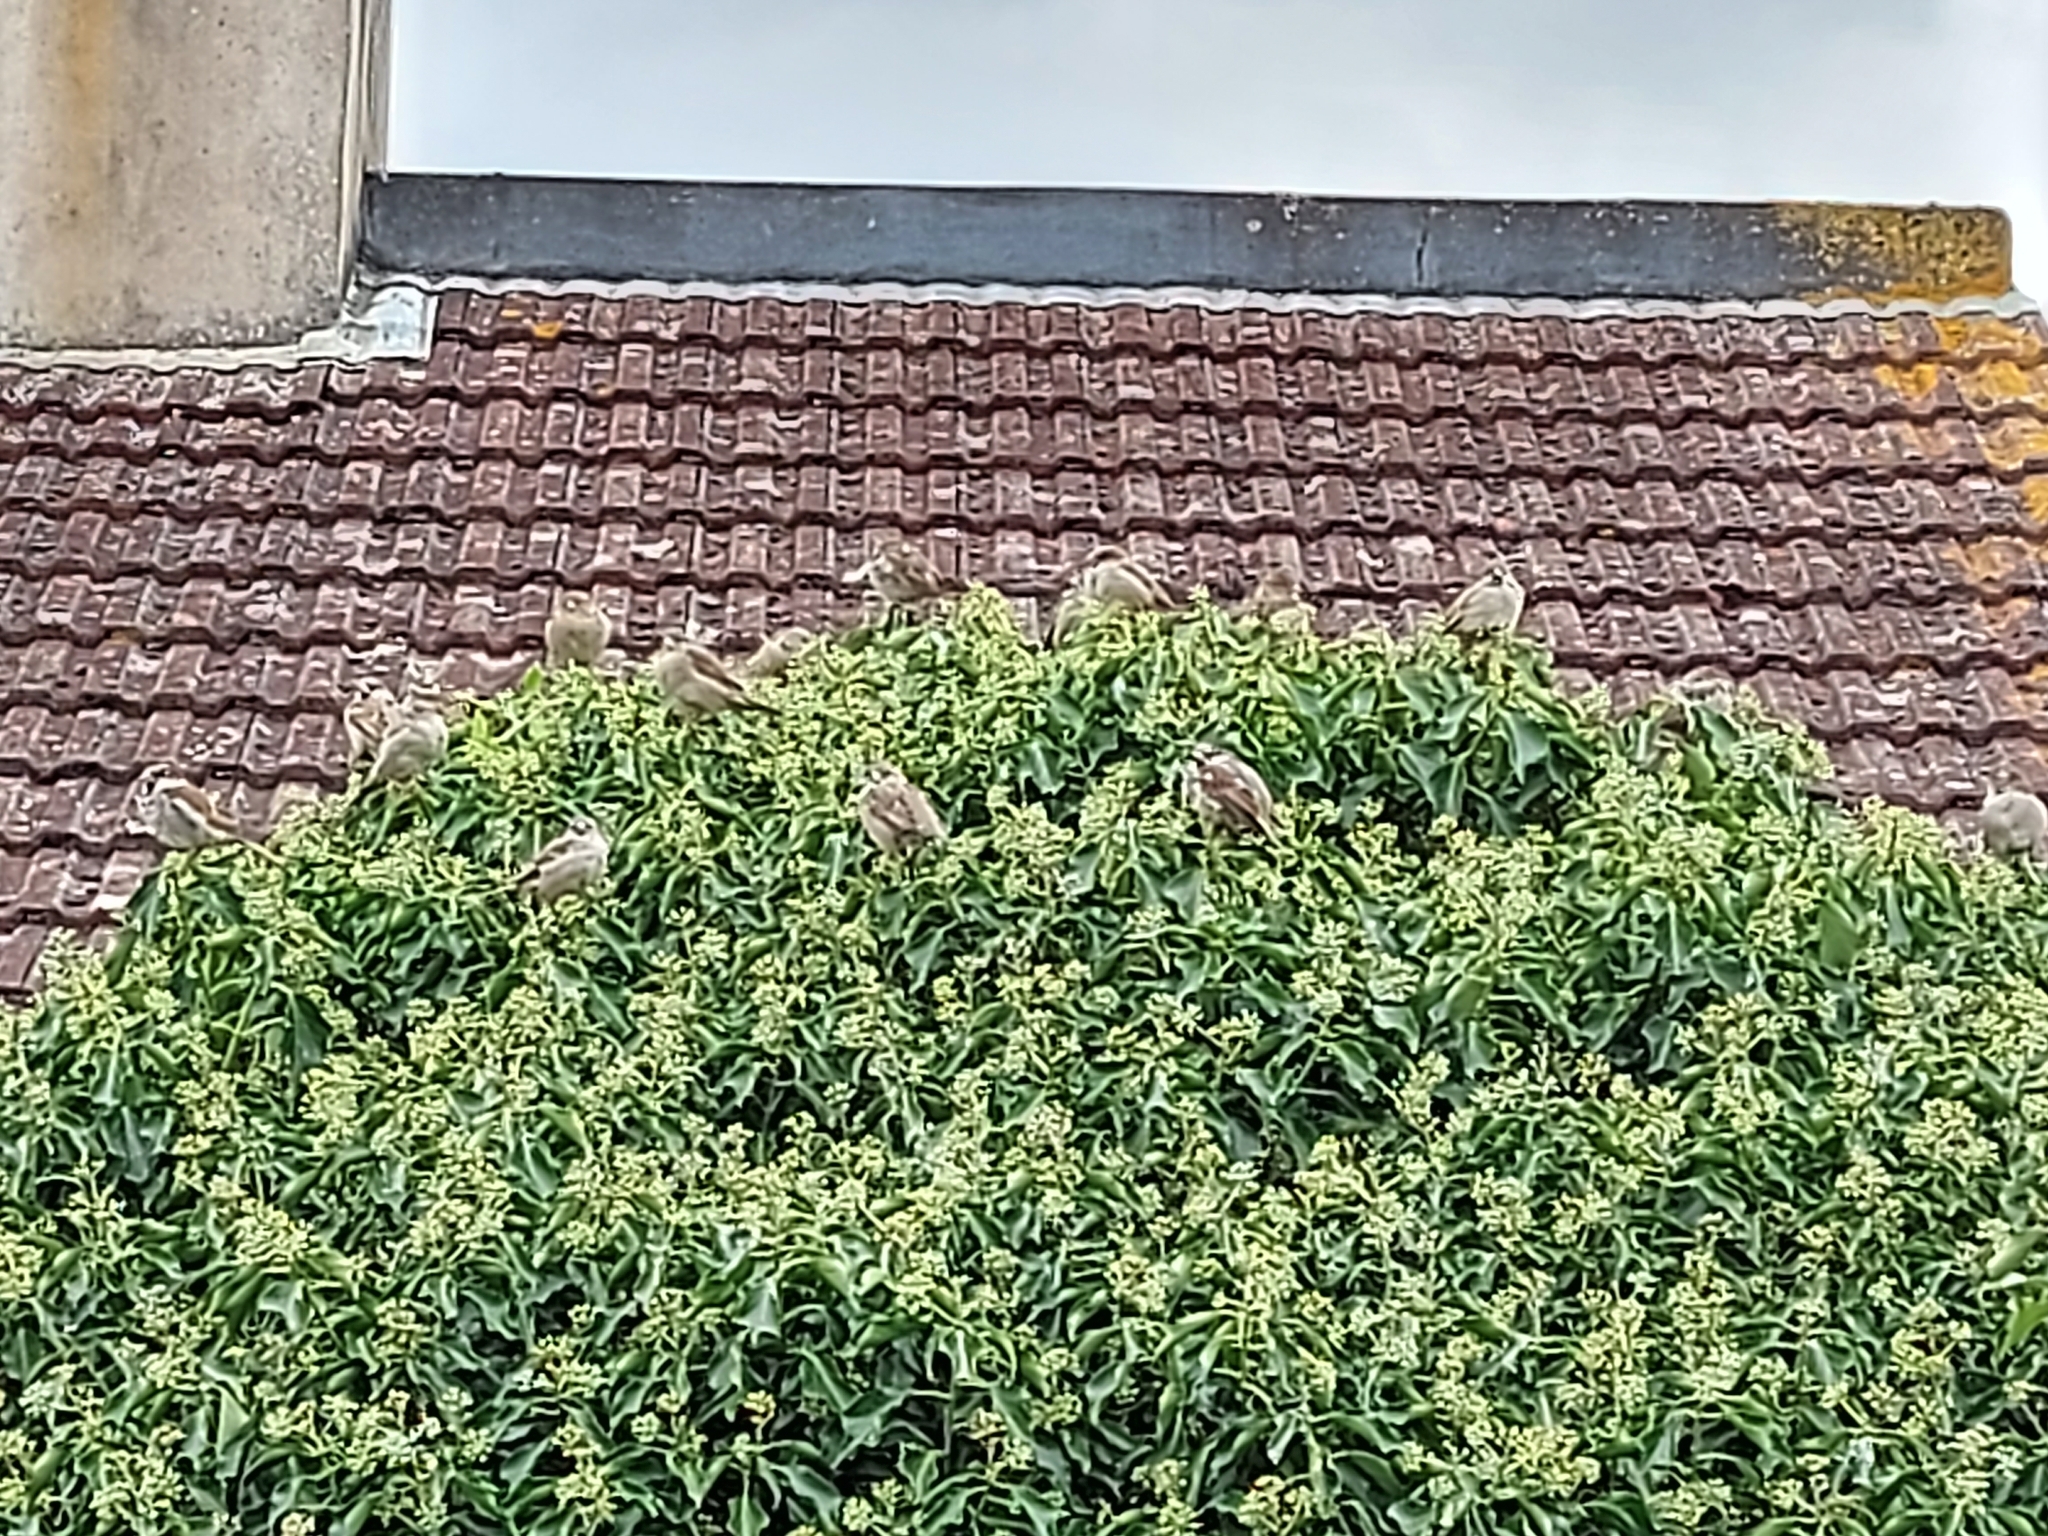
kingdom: Animalia
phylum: Chordata
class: Aves
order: Passeriformes
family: Passeridae
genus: Passer
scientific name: Passer domesticus
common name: House sparrow
